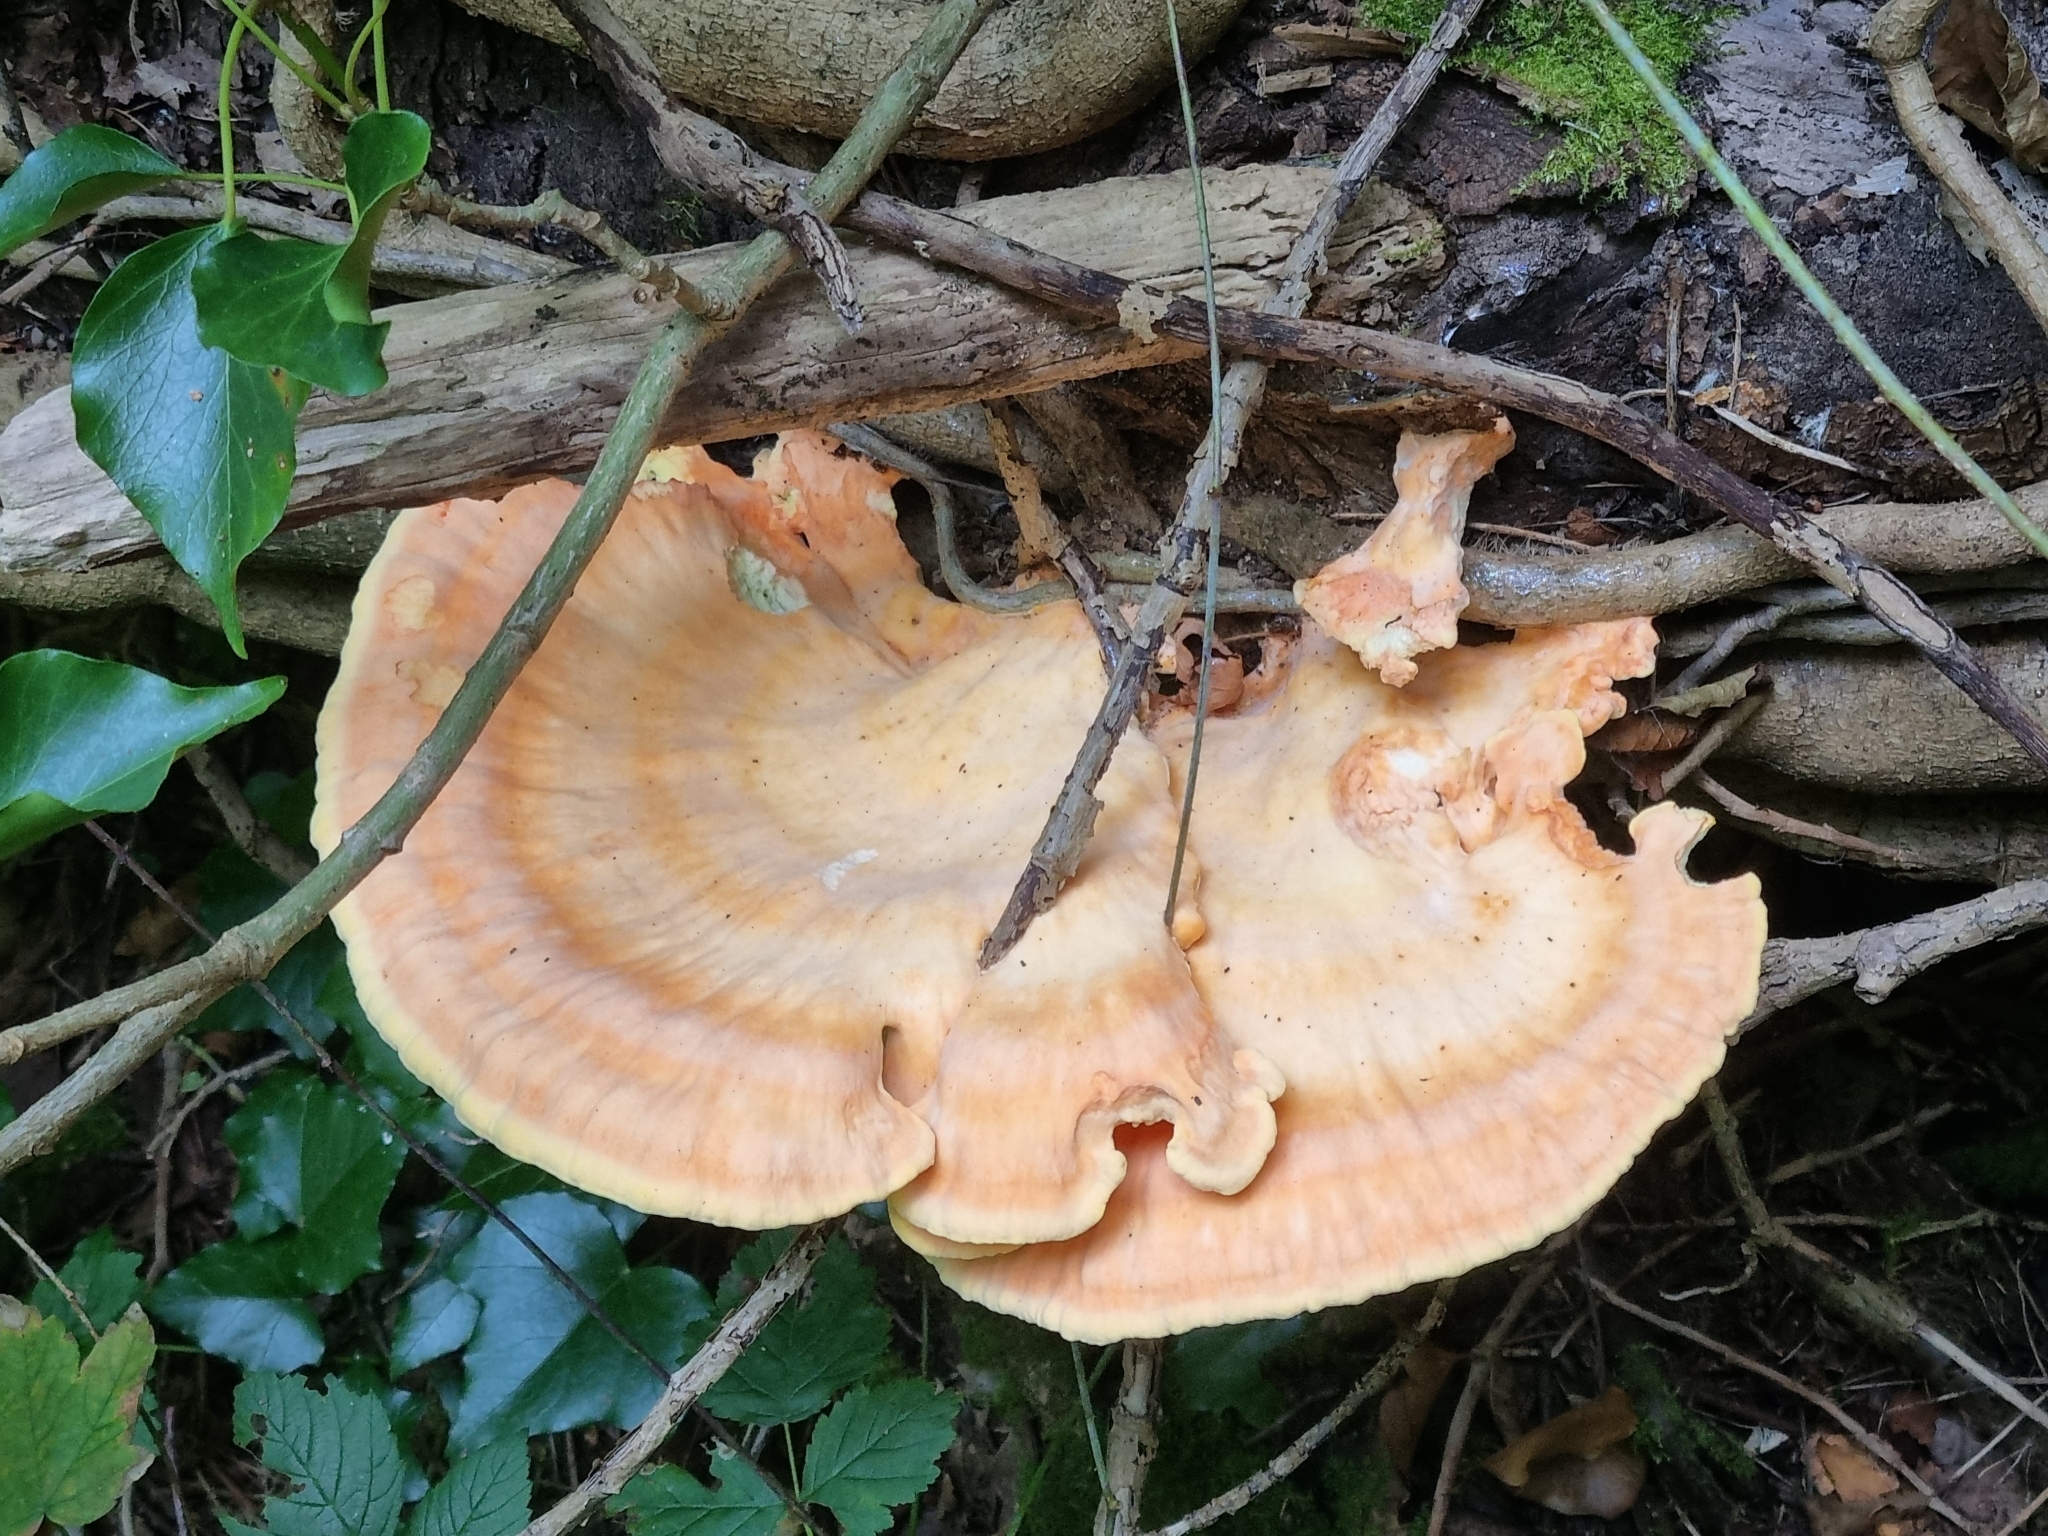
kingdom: Fungi
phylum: Basidiomycota
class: Agaricomycetes
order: Polyporales
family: Laetiporaceae
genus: Laetiporus
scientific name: Laetiporus sulphureus
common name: Chicken of the woods
